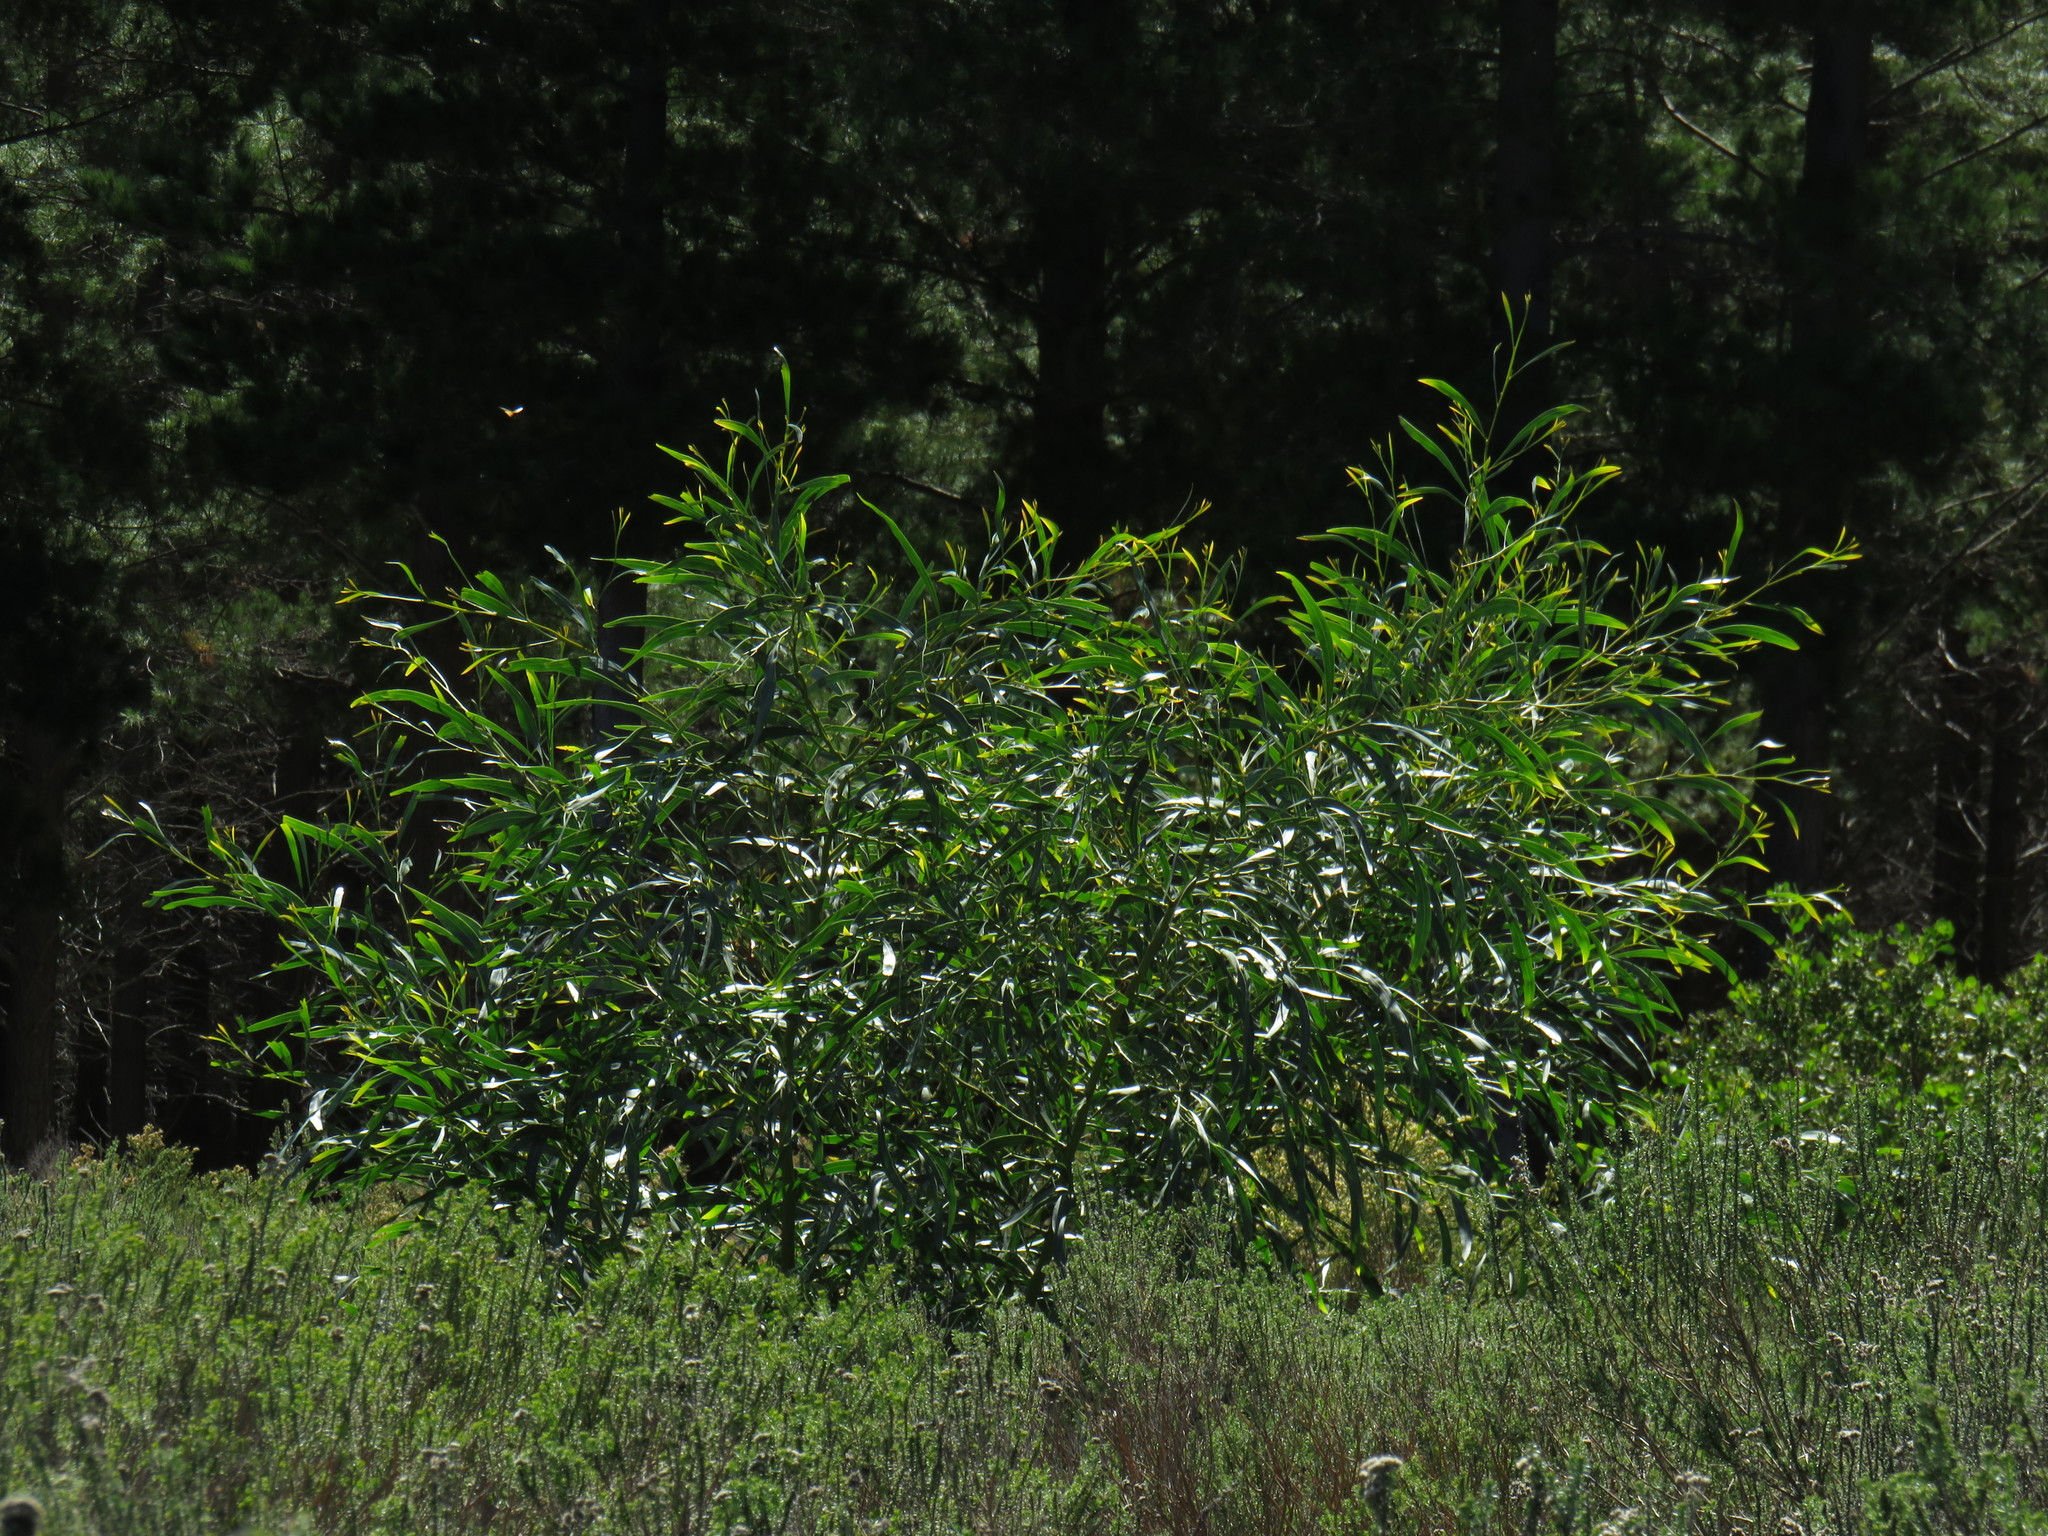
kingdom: Plantae
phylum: Tracheophyta
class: Magnoliopsida
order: Fabales
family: Fabaceae
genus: Acacia
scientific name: Acacia saligna
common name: Orange wattle
